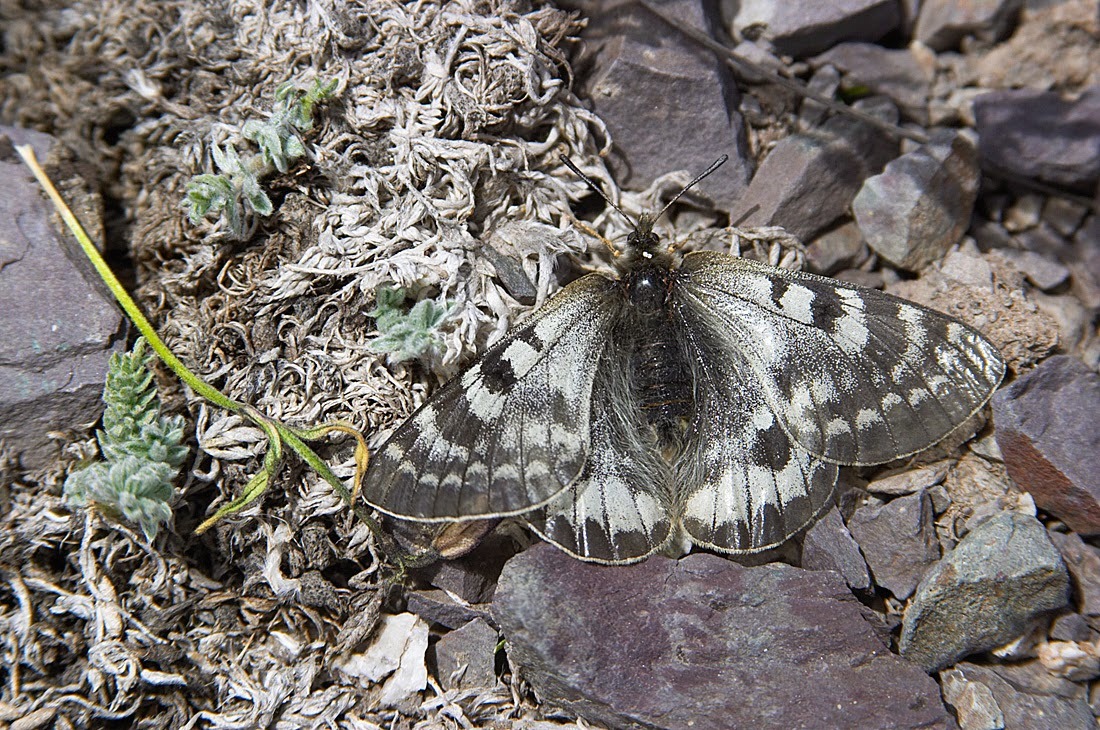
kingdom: Animalia
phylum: Arthropoda
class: Insecta
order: Lepidoptera
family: Papilionidae
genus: Parnassius
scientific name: Parnassius patricius
